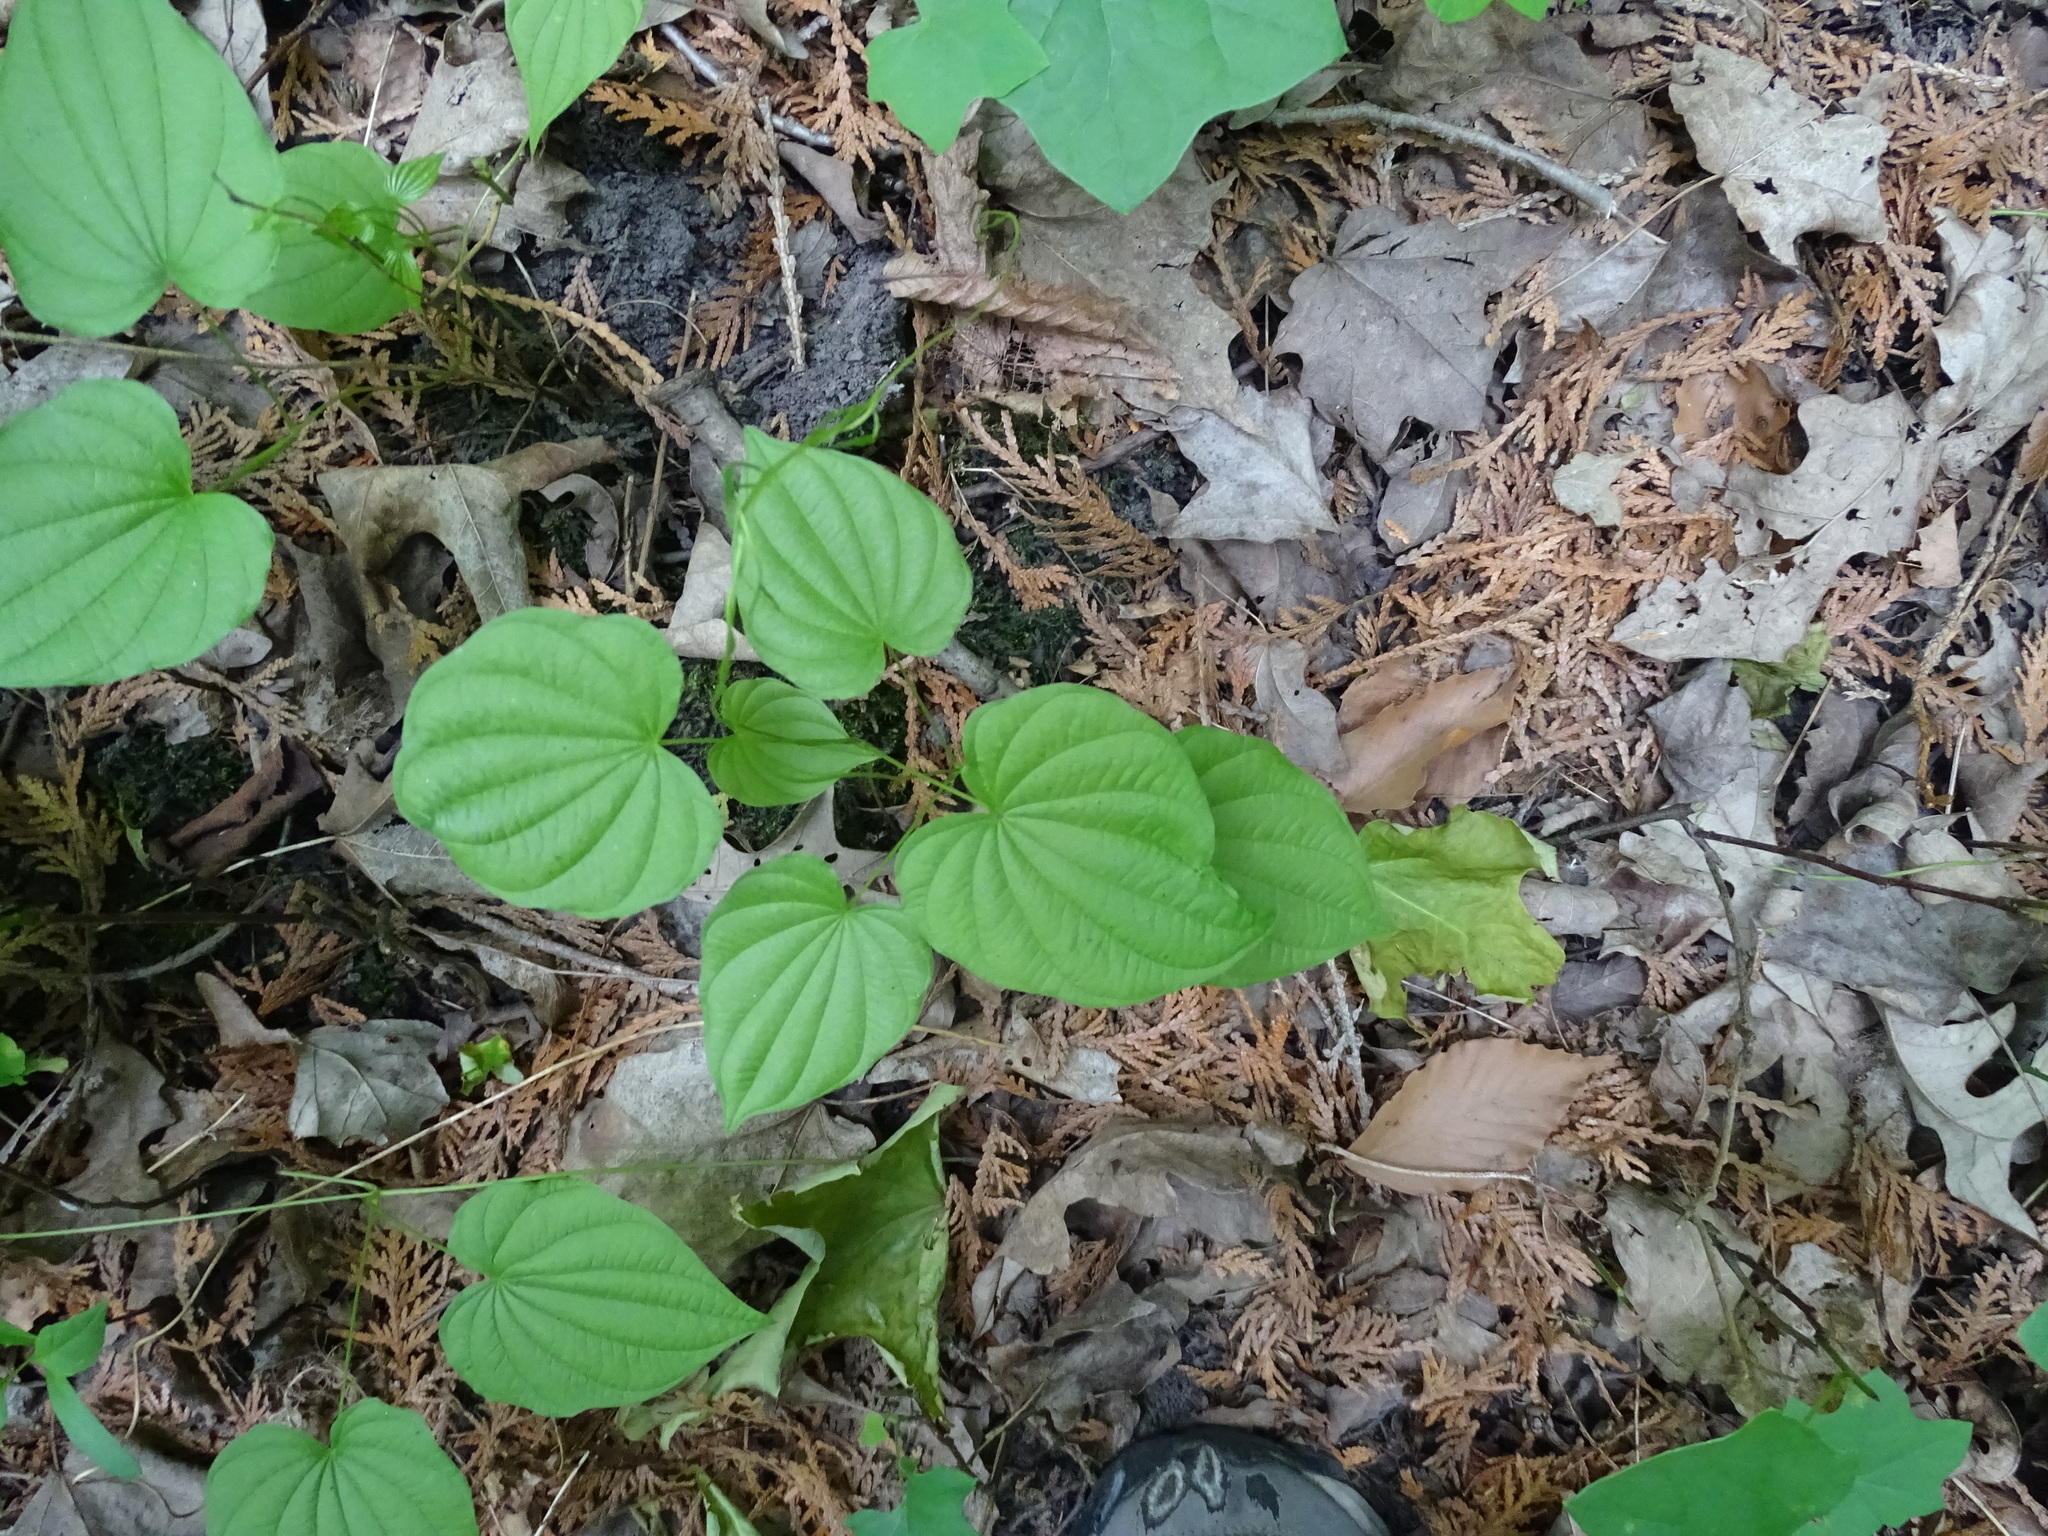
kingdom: Plantae
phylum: Tracheophyta
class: Liliopsida
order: Dioscoreales
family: Dioscoreaceae
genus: Dioscorea
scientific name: Dioscorea villosa
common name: Wild yam
